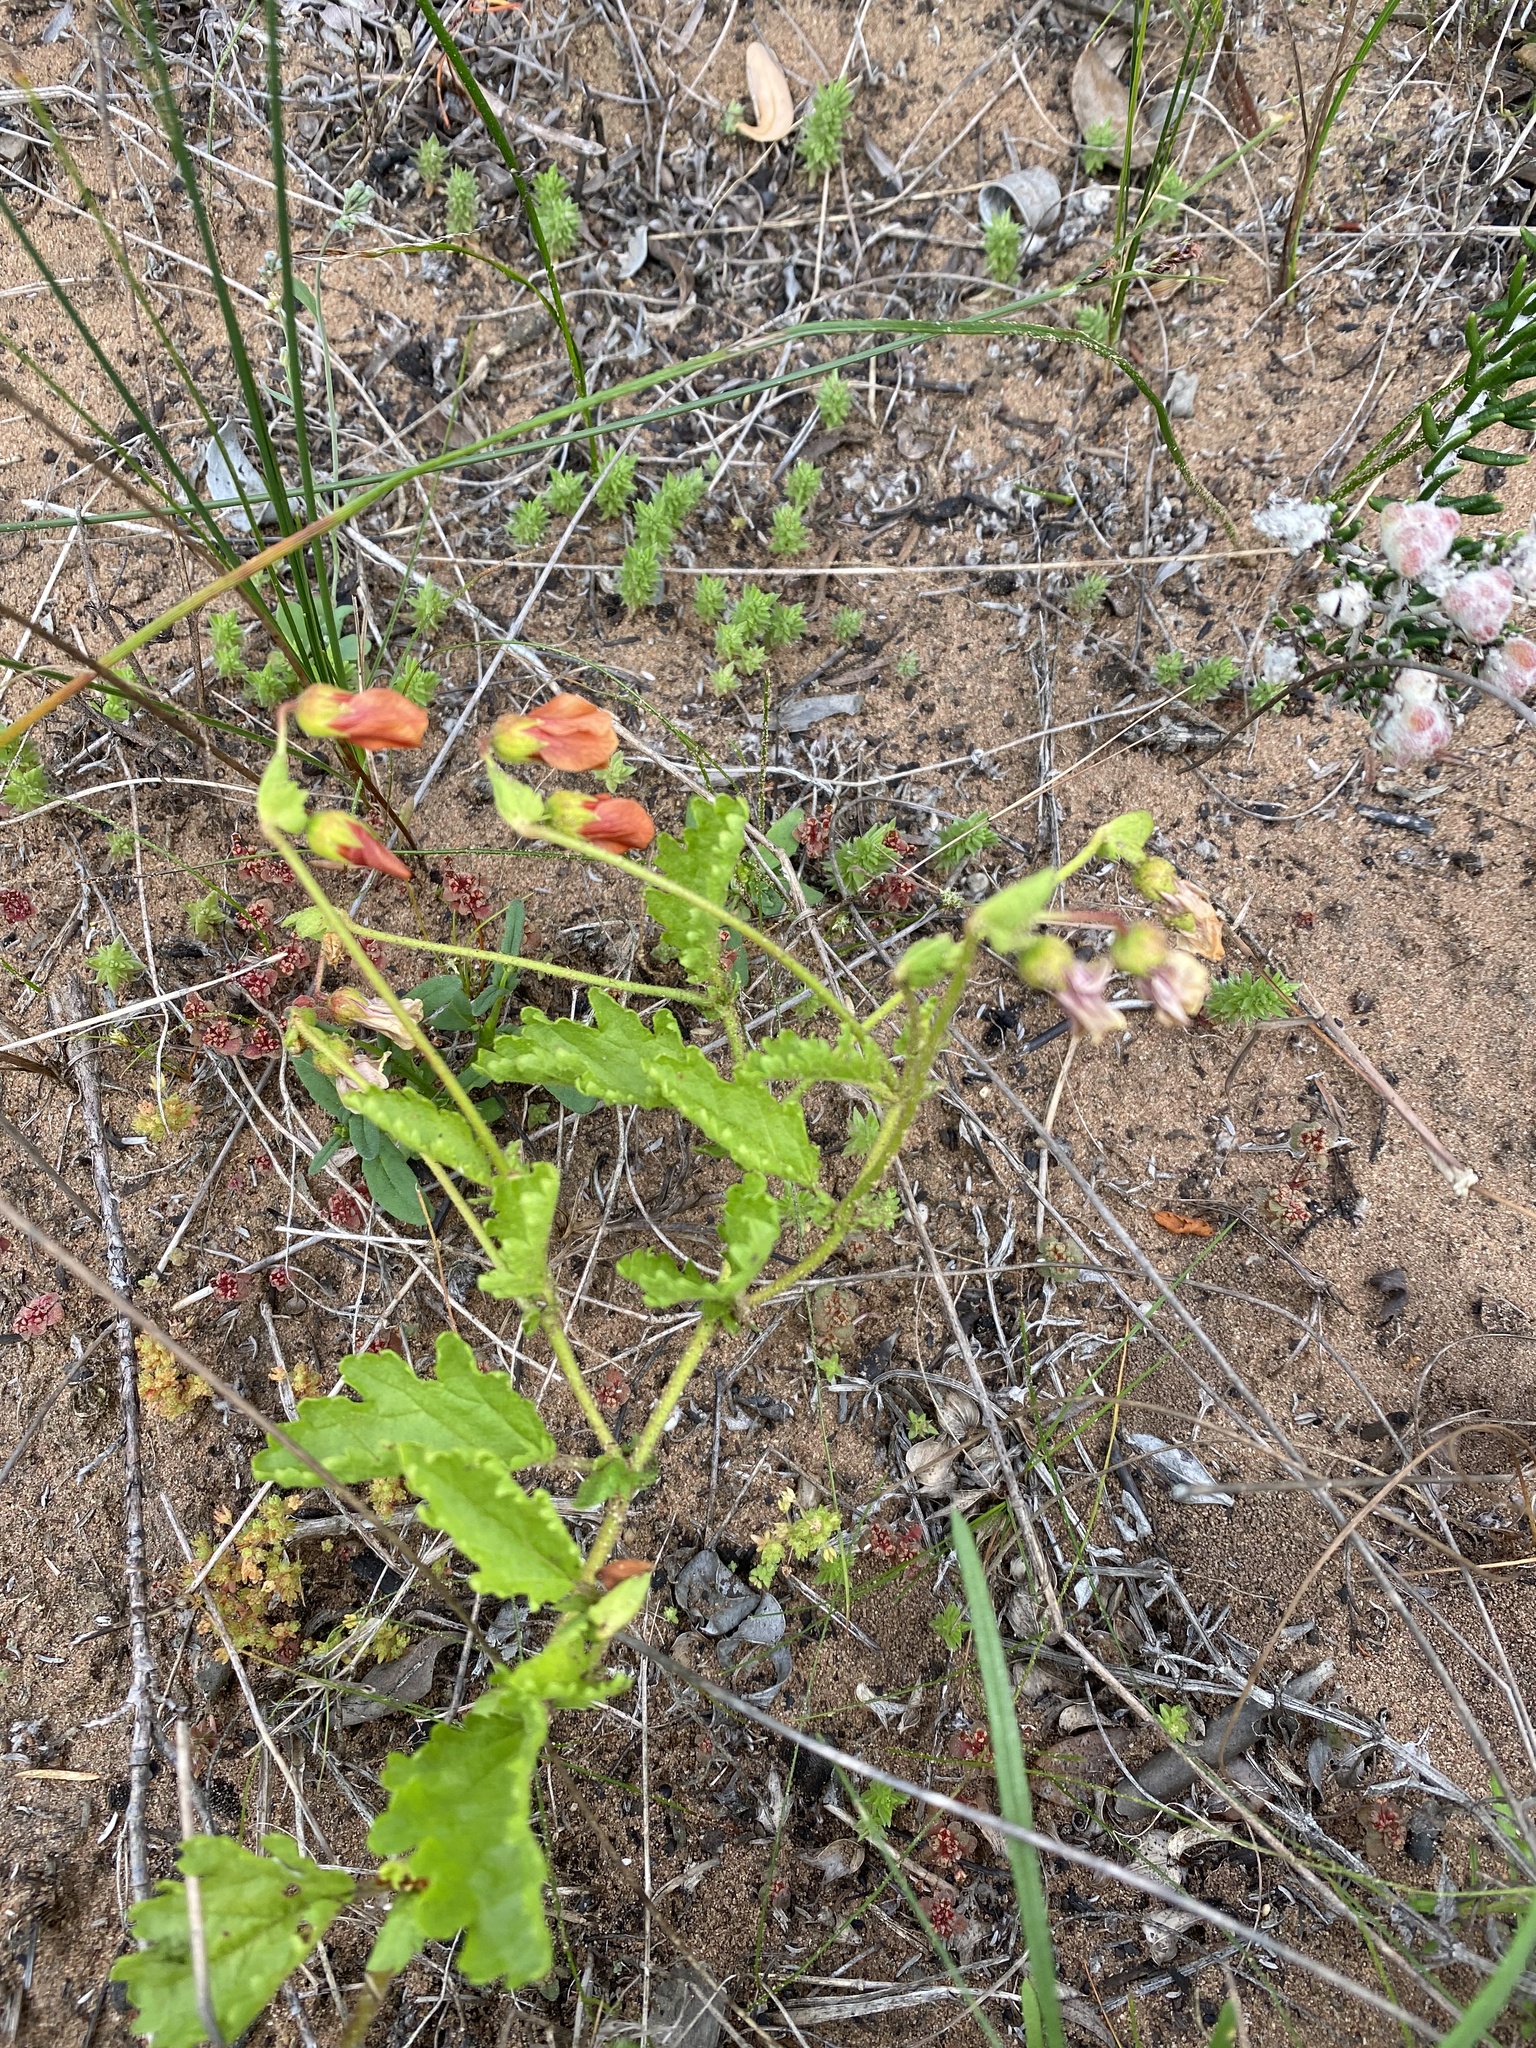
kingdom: Plantae
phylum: Tracheophyta
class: Magnoliopsida
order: Malvales
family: Malvaceae
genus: Hermannia
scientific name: Hermannia scabricaulis
